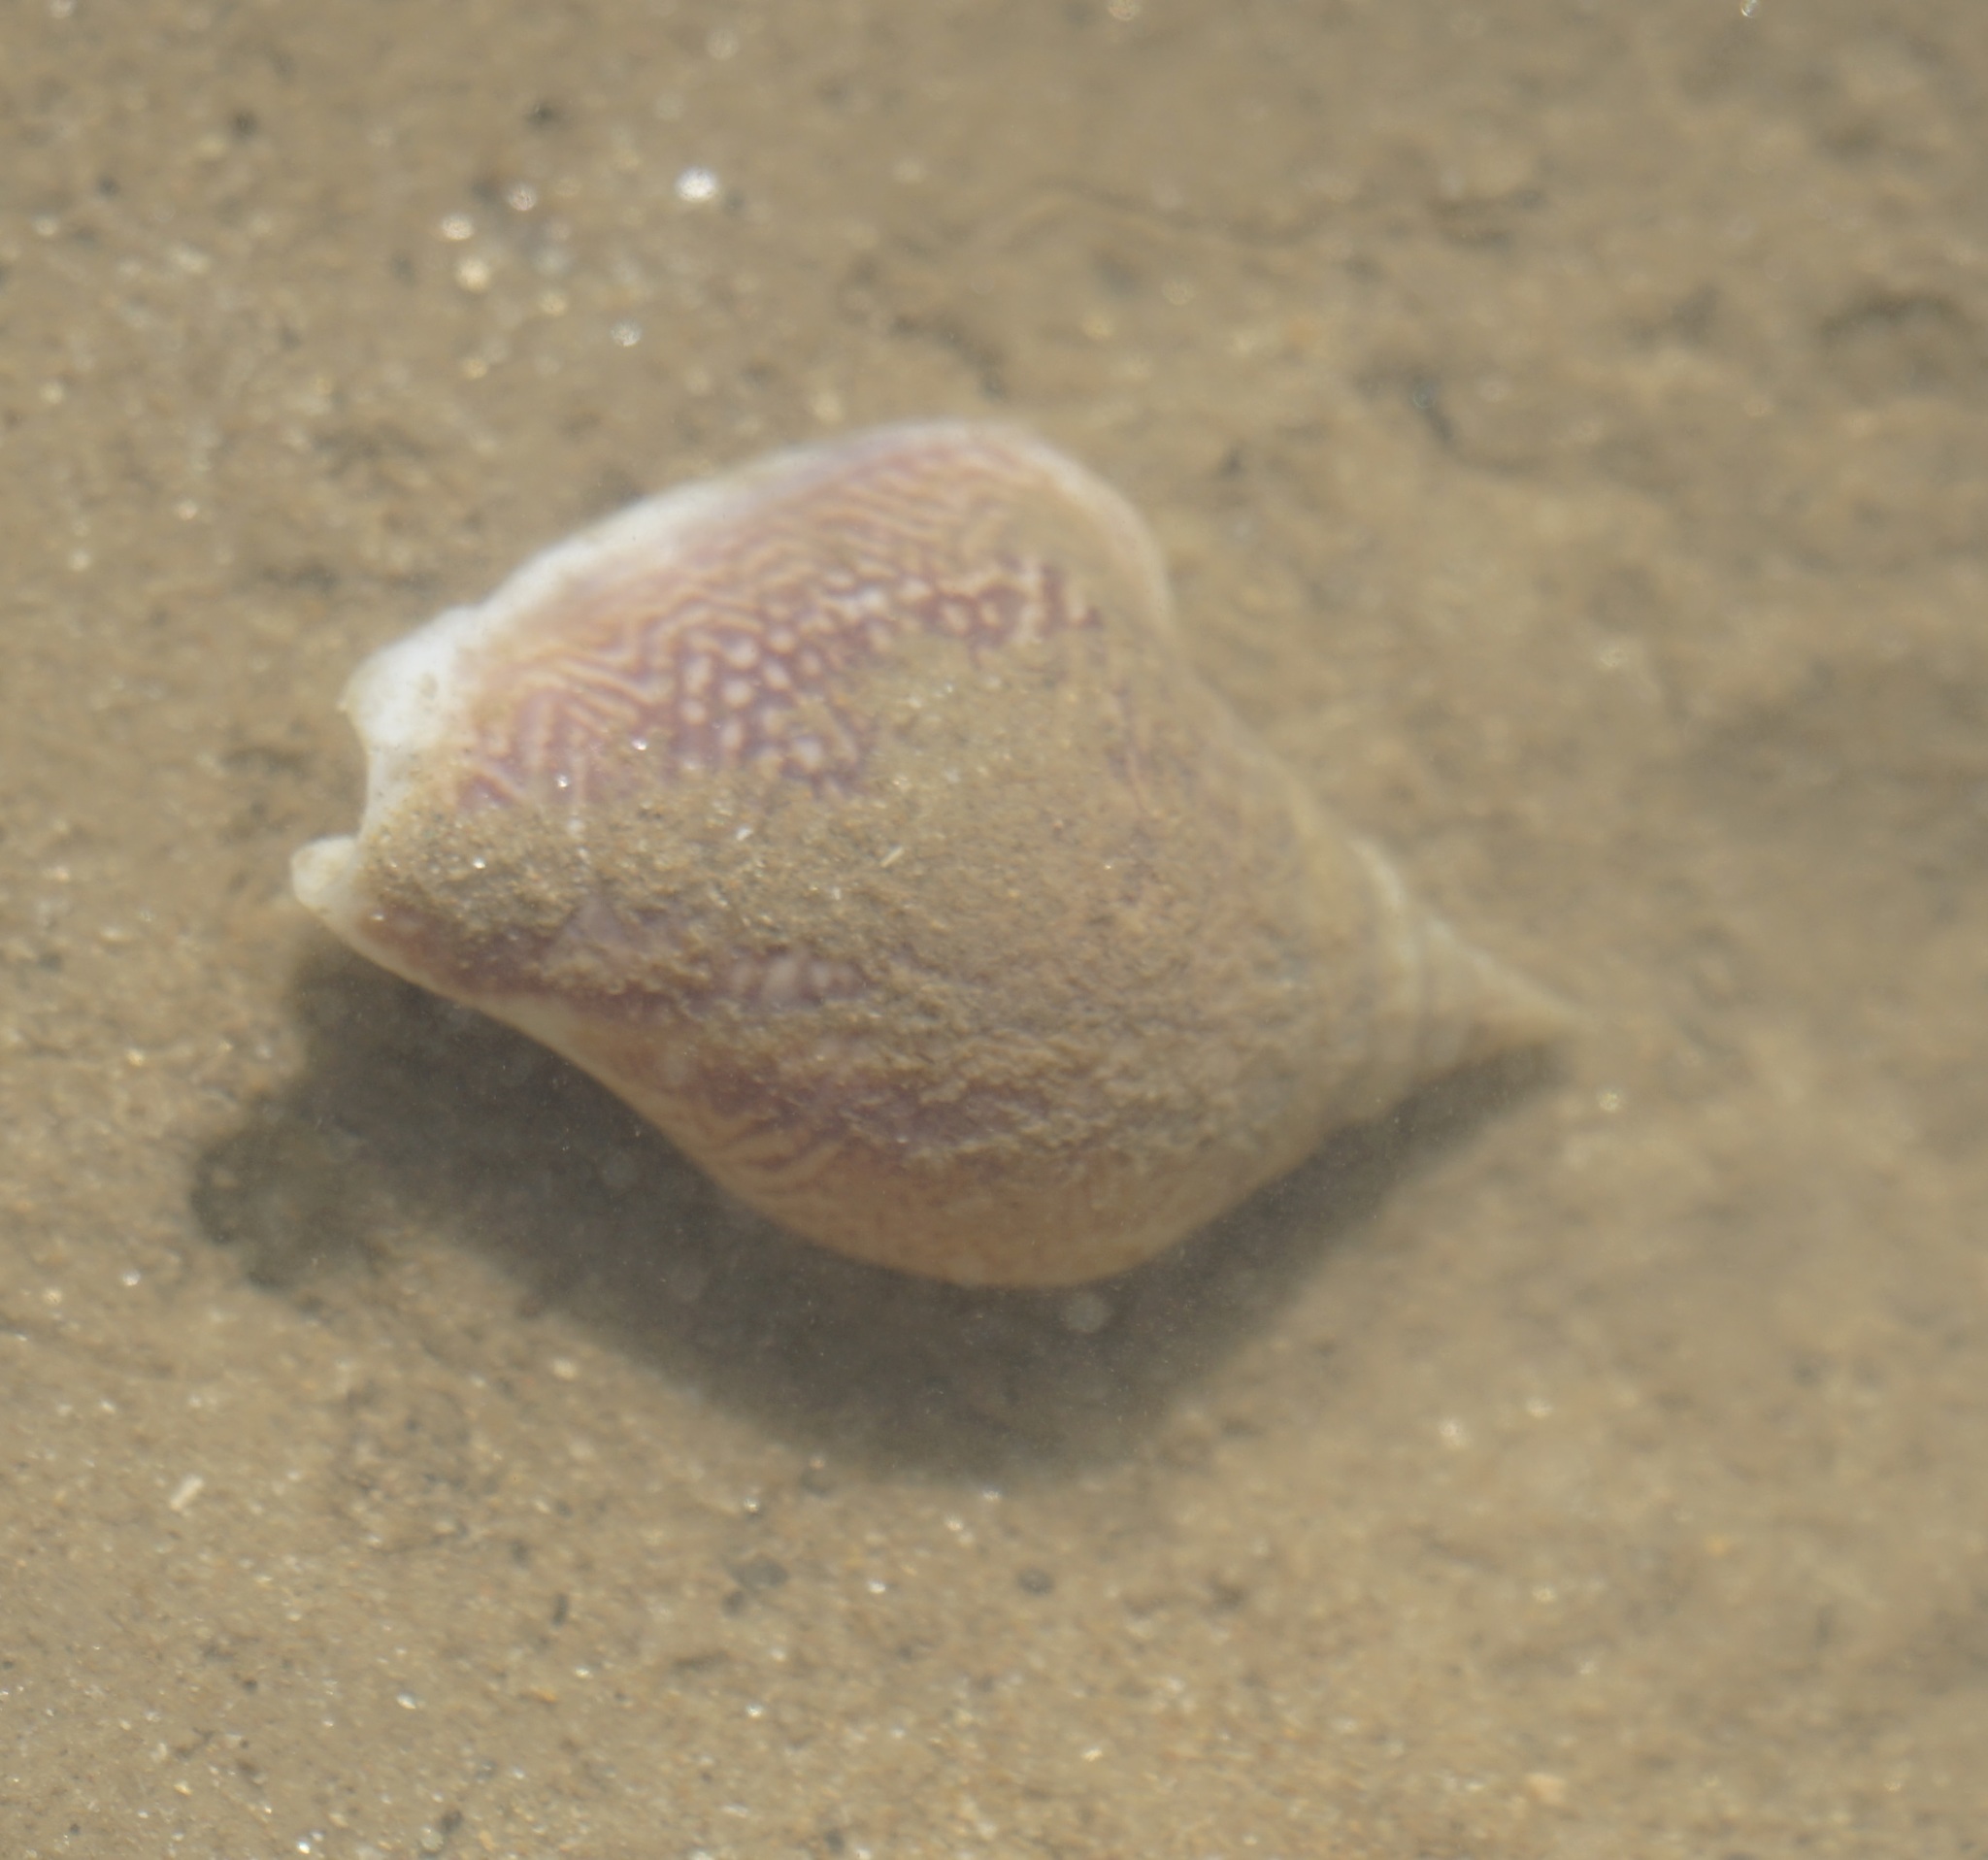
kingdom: Animalia
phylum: Mollusca
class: Gastropoda
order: Littorinimorpha
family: Strombidae
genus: Laevistrombus
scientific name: Laevistrombus canarium
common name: Dog conch
